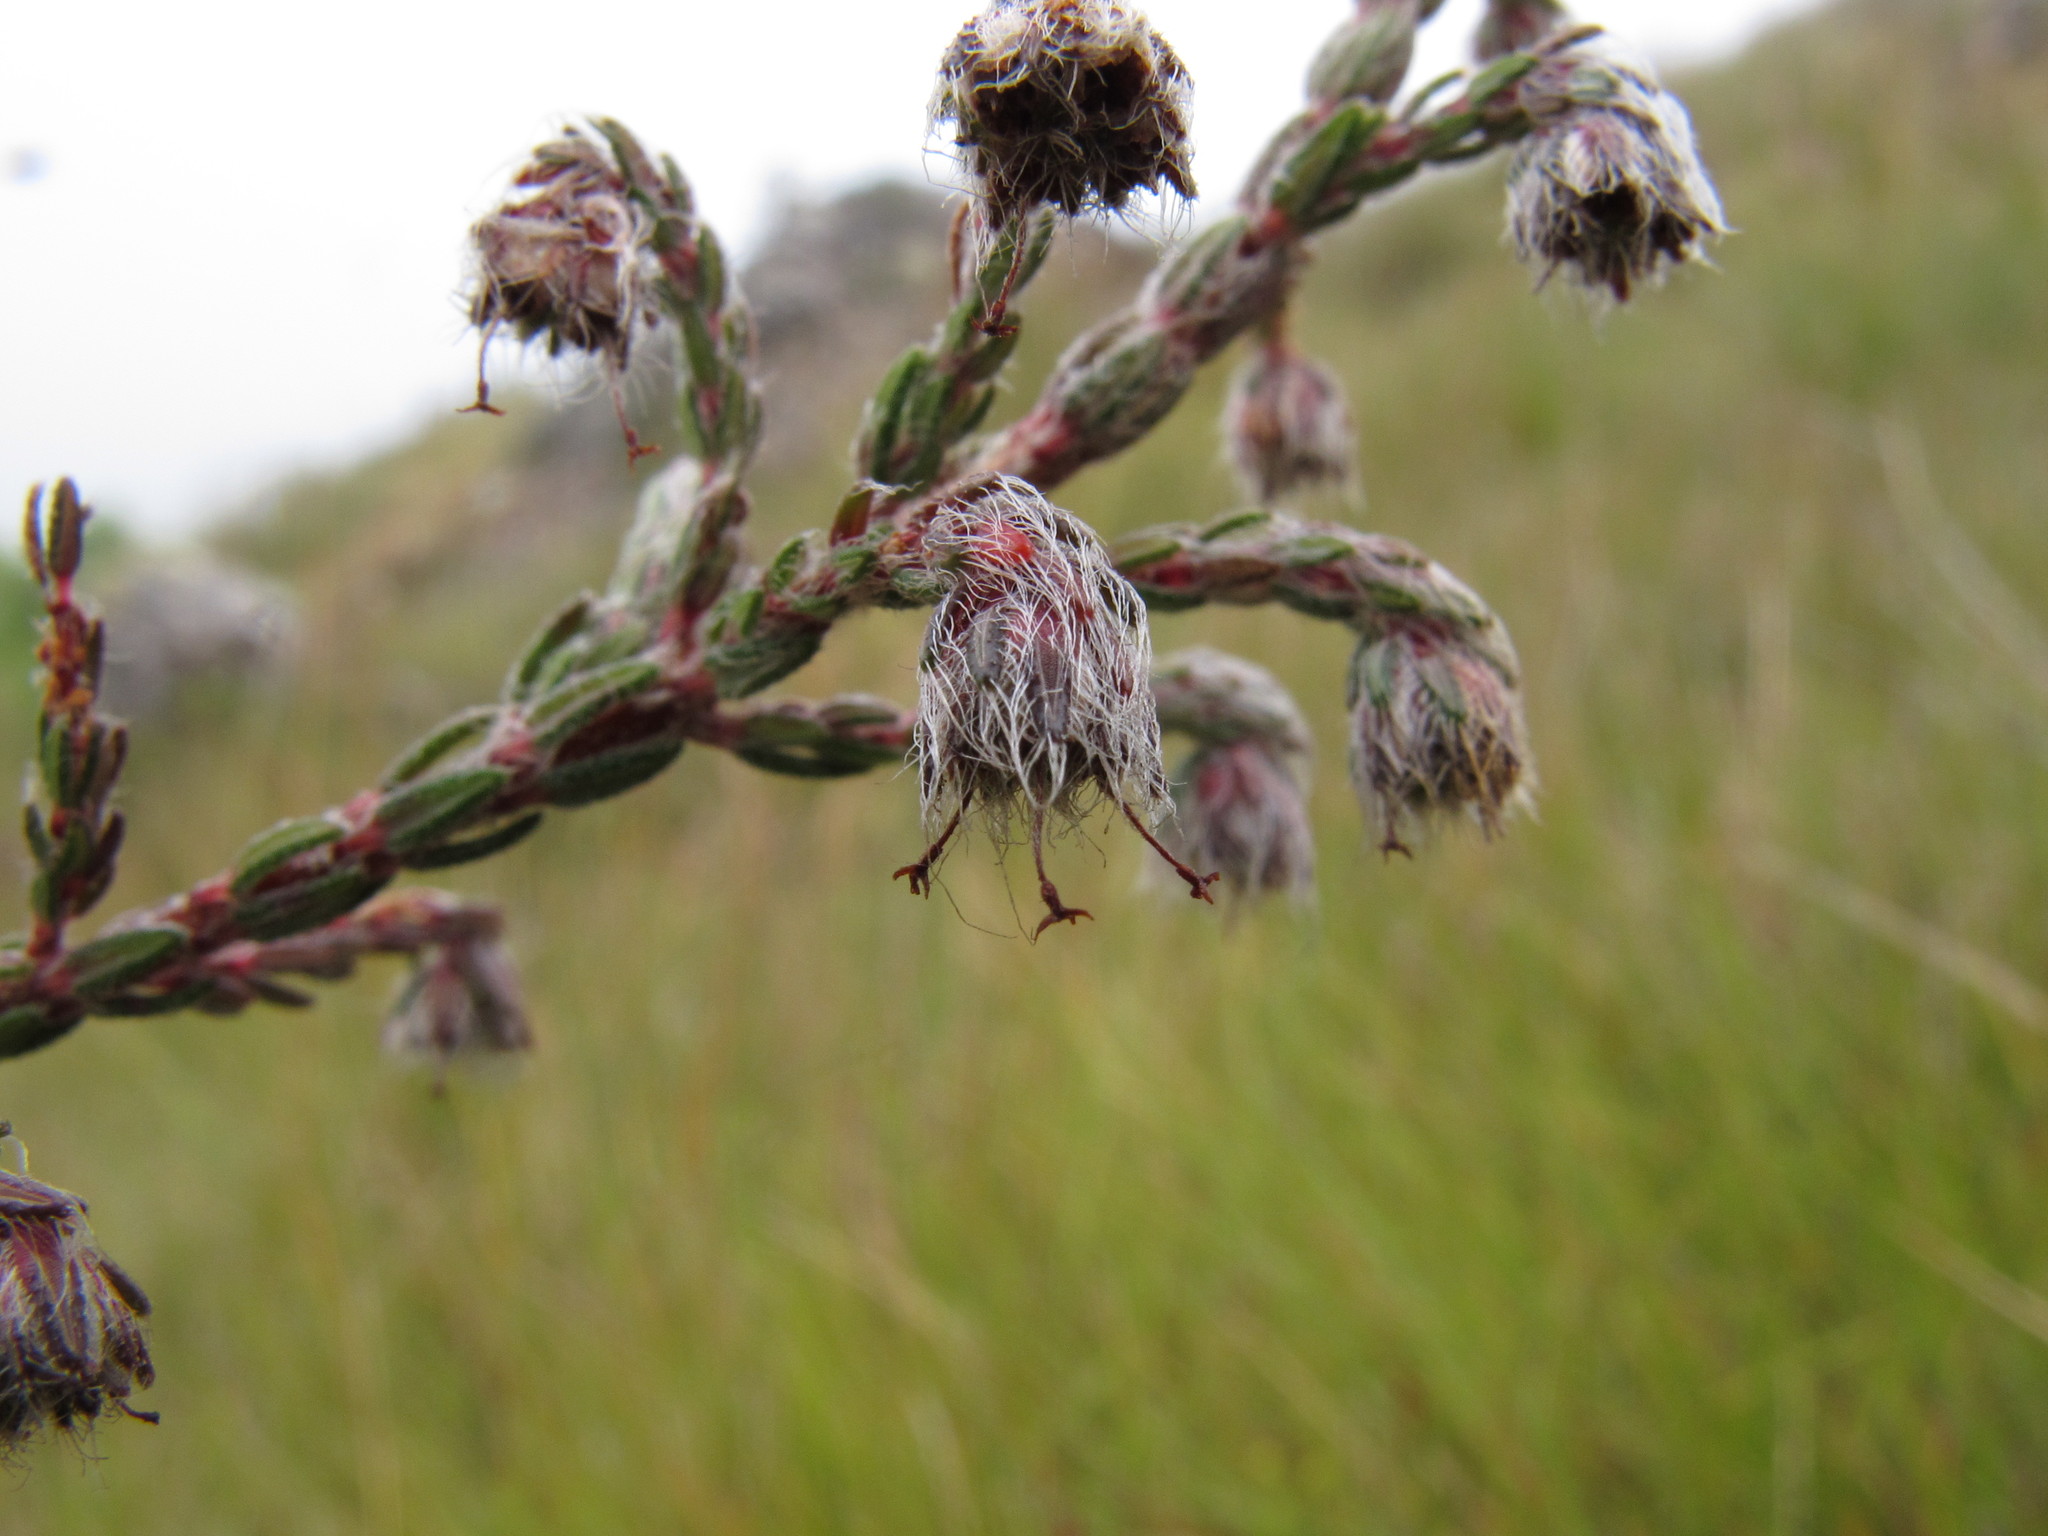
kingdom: Plantae
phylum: Tracheophyta
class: Magnoliopsida
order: Ericales
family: Ericaceae
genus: Erica
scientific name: Erica madagascariensis
